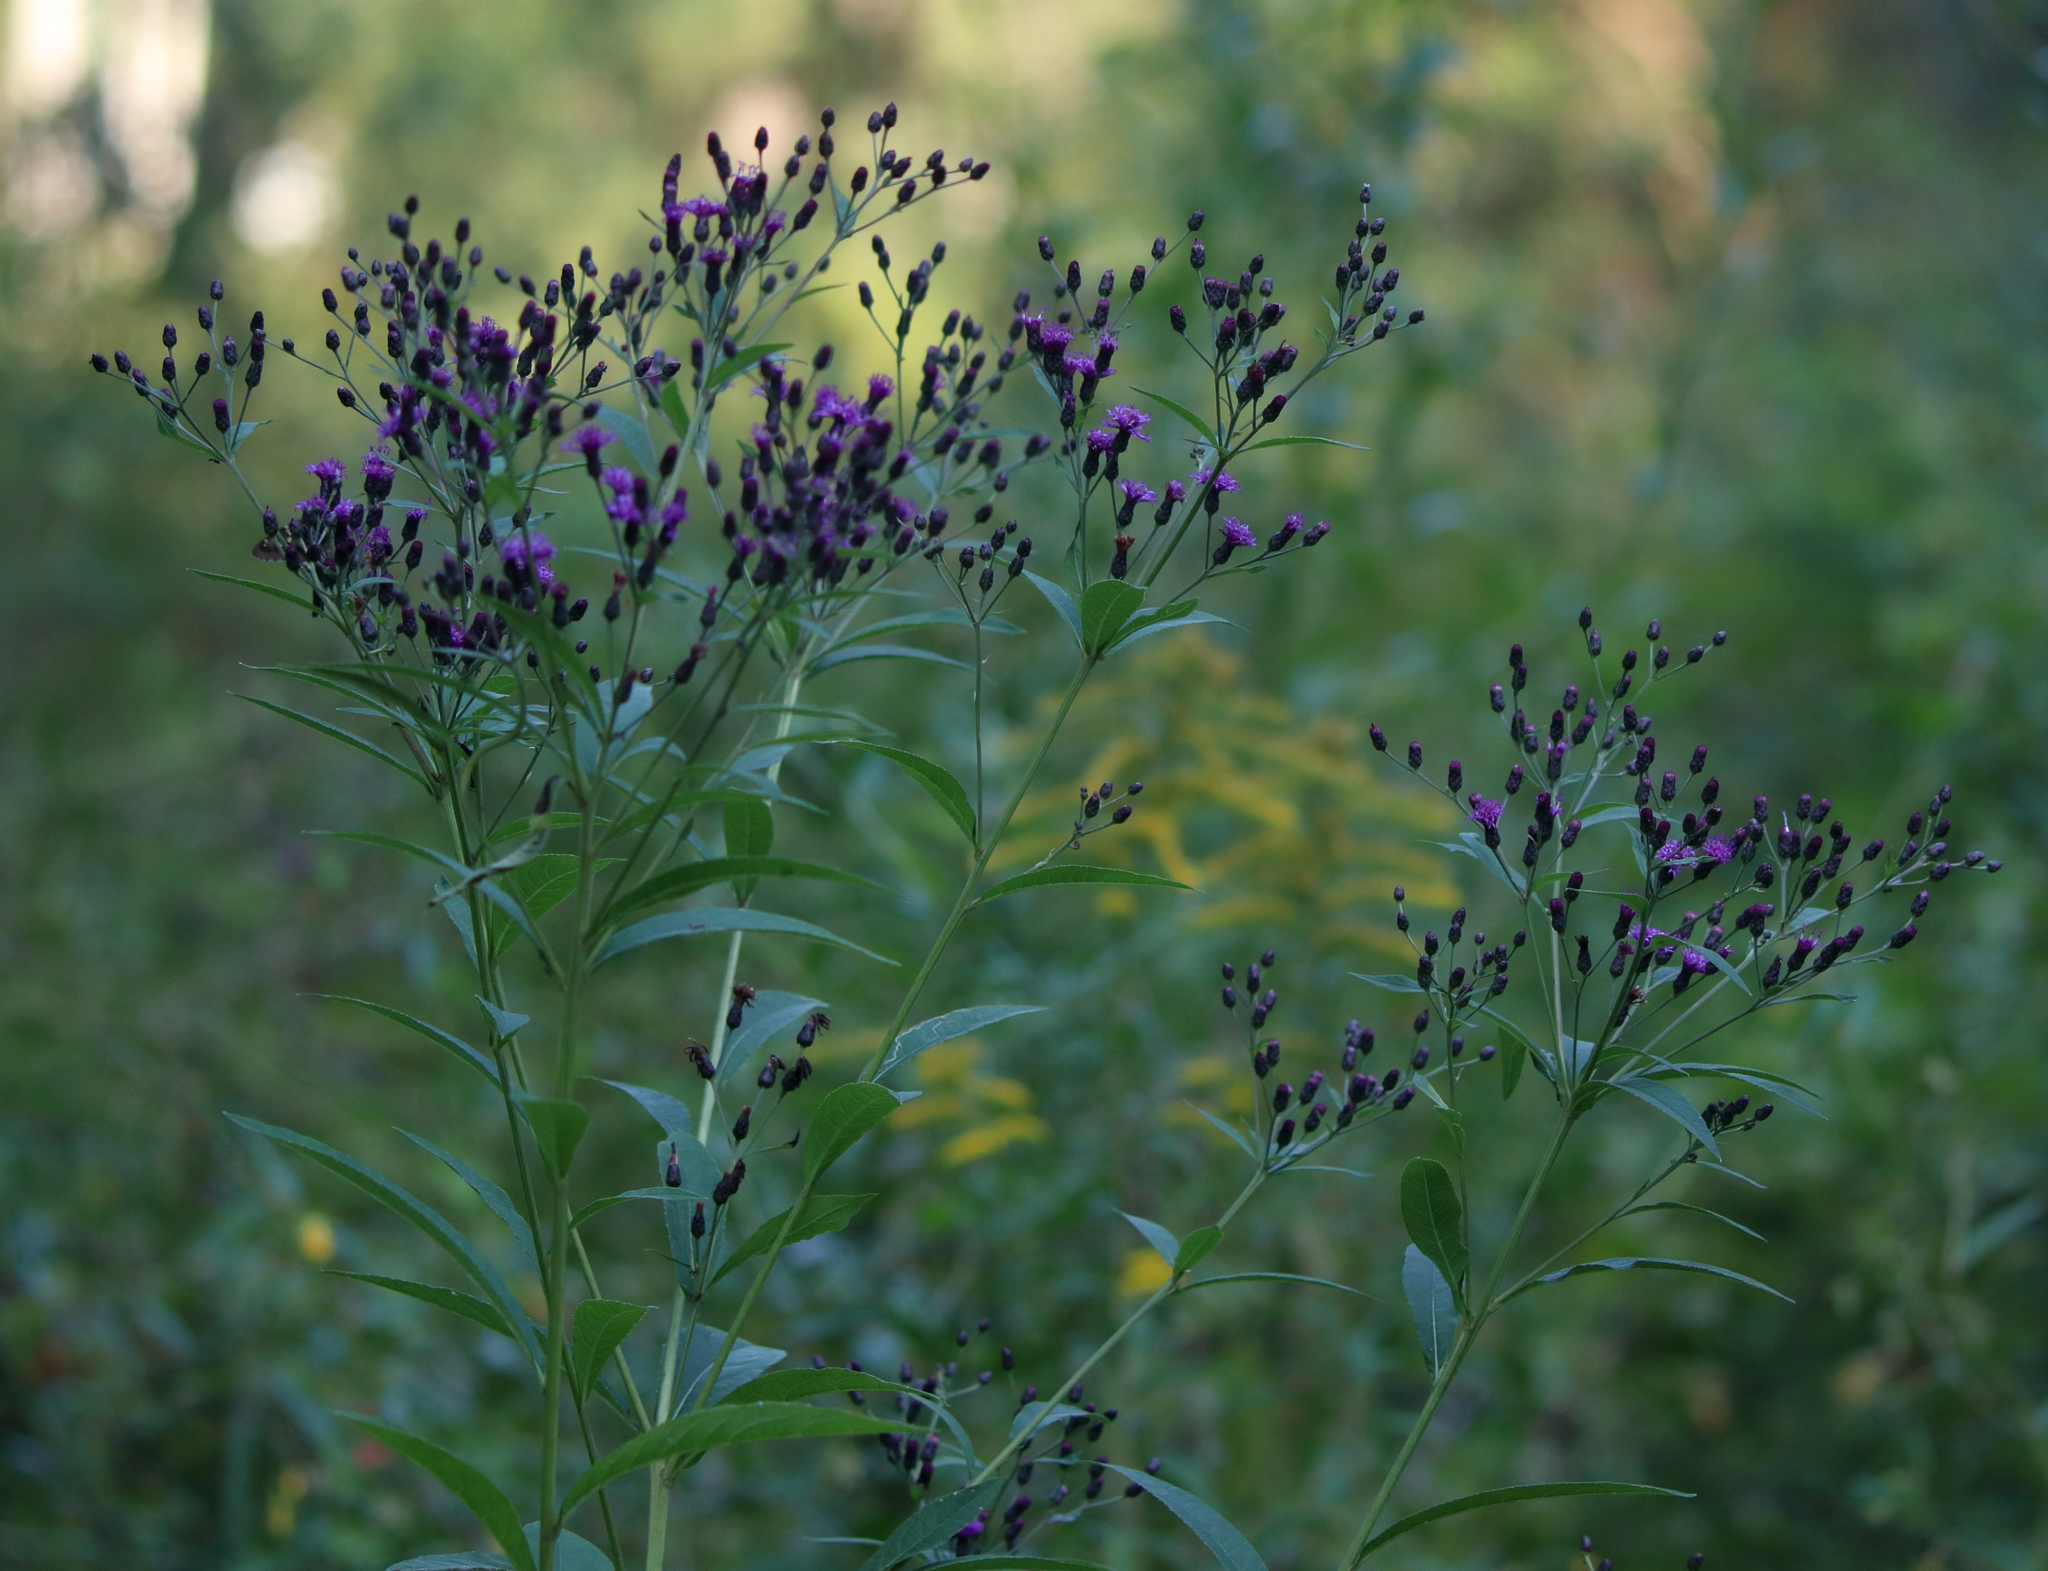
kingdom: Plantae
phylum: Tracheophyta
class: Magnoliopsida
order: Asterales
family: Asteraceae
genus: Vernonia
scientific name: Vernonia gigantea
